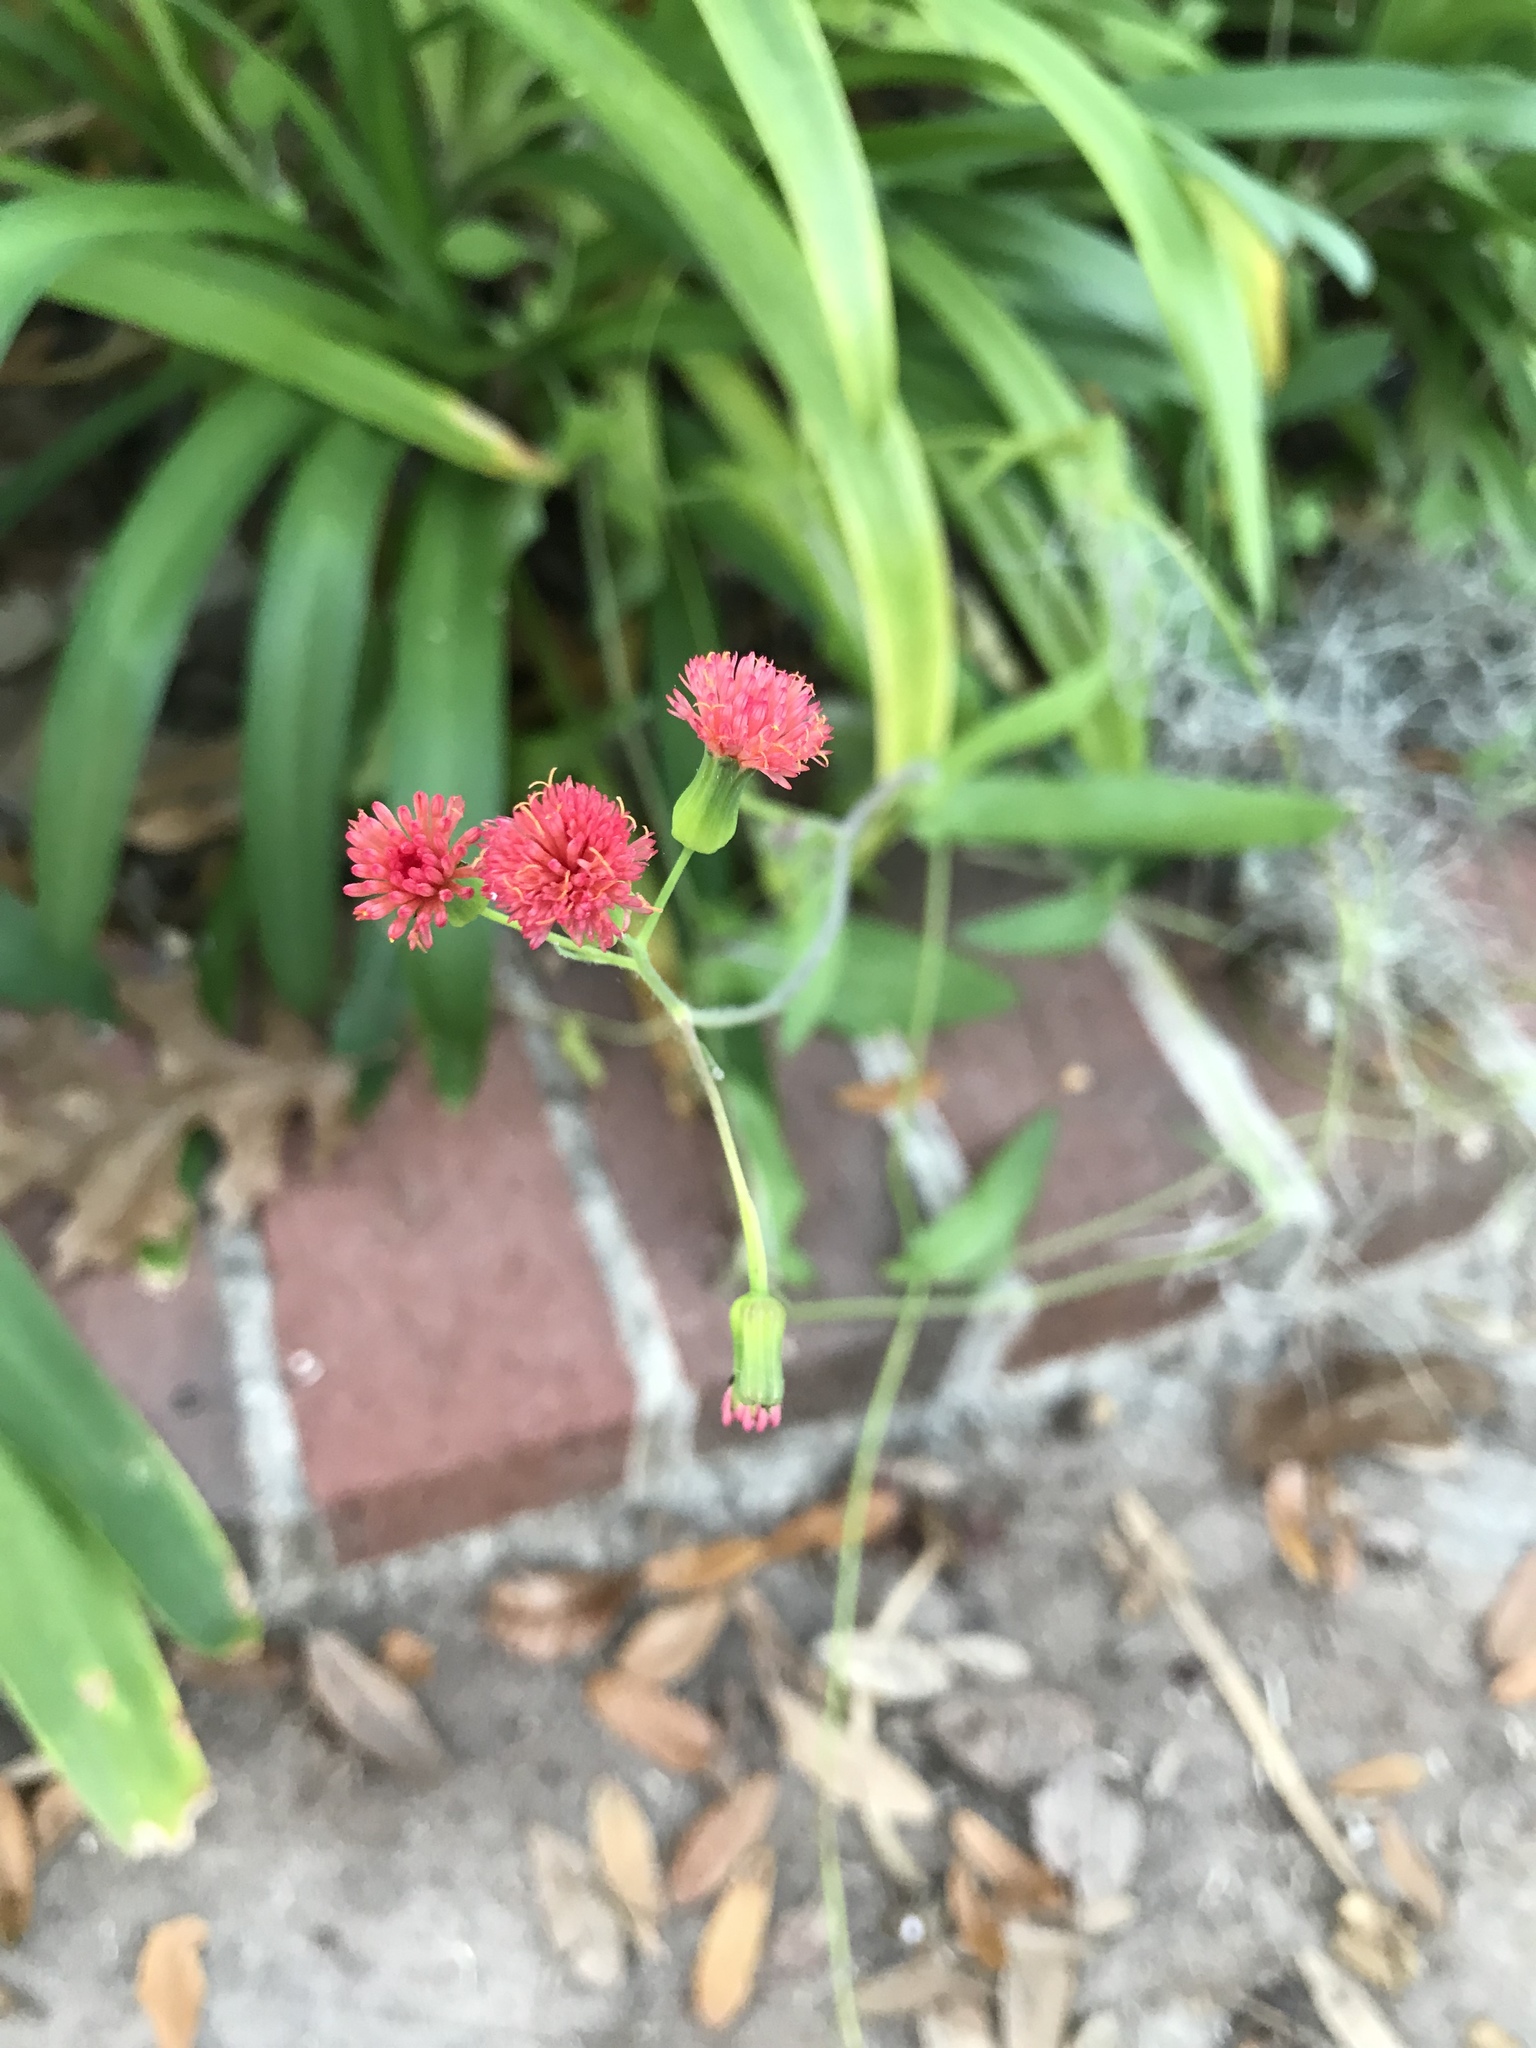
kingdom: Plantae
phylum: Tracheophyta
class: Magnoliopsida
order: Asterales
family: Asteraceae
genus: Emilia
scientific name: Emilia fosbergii
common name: Florida tasselflower
